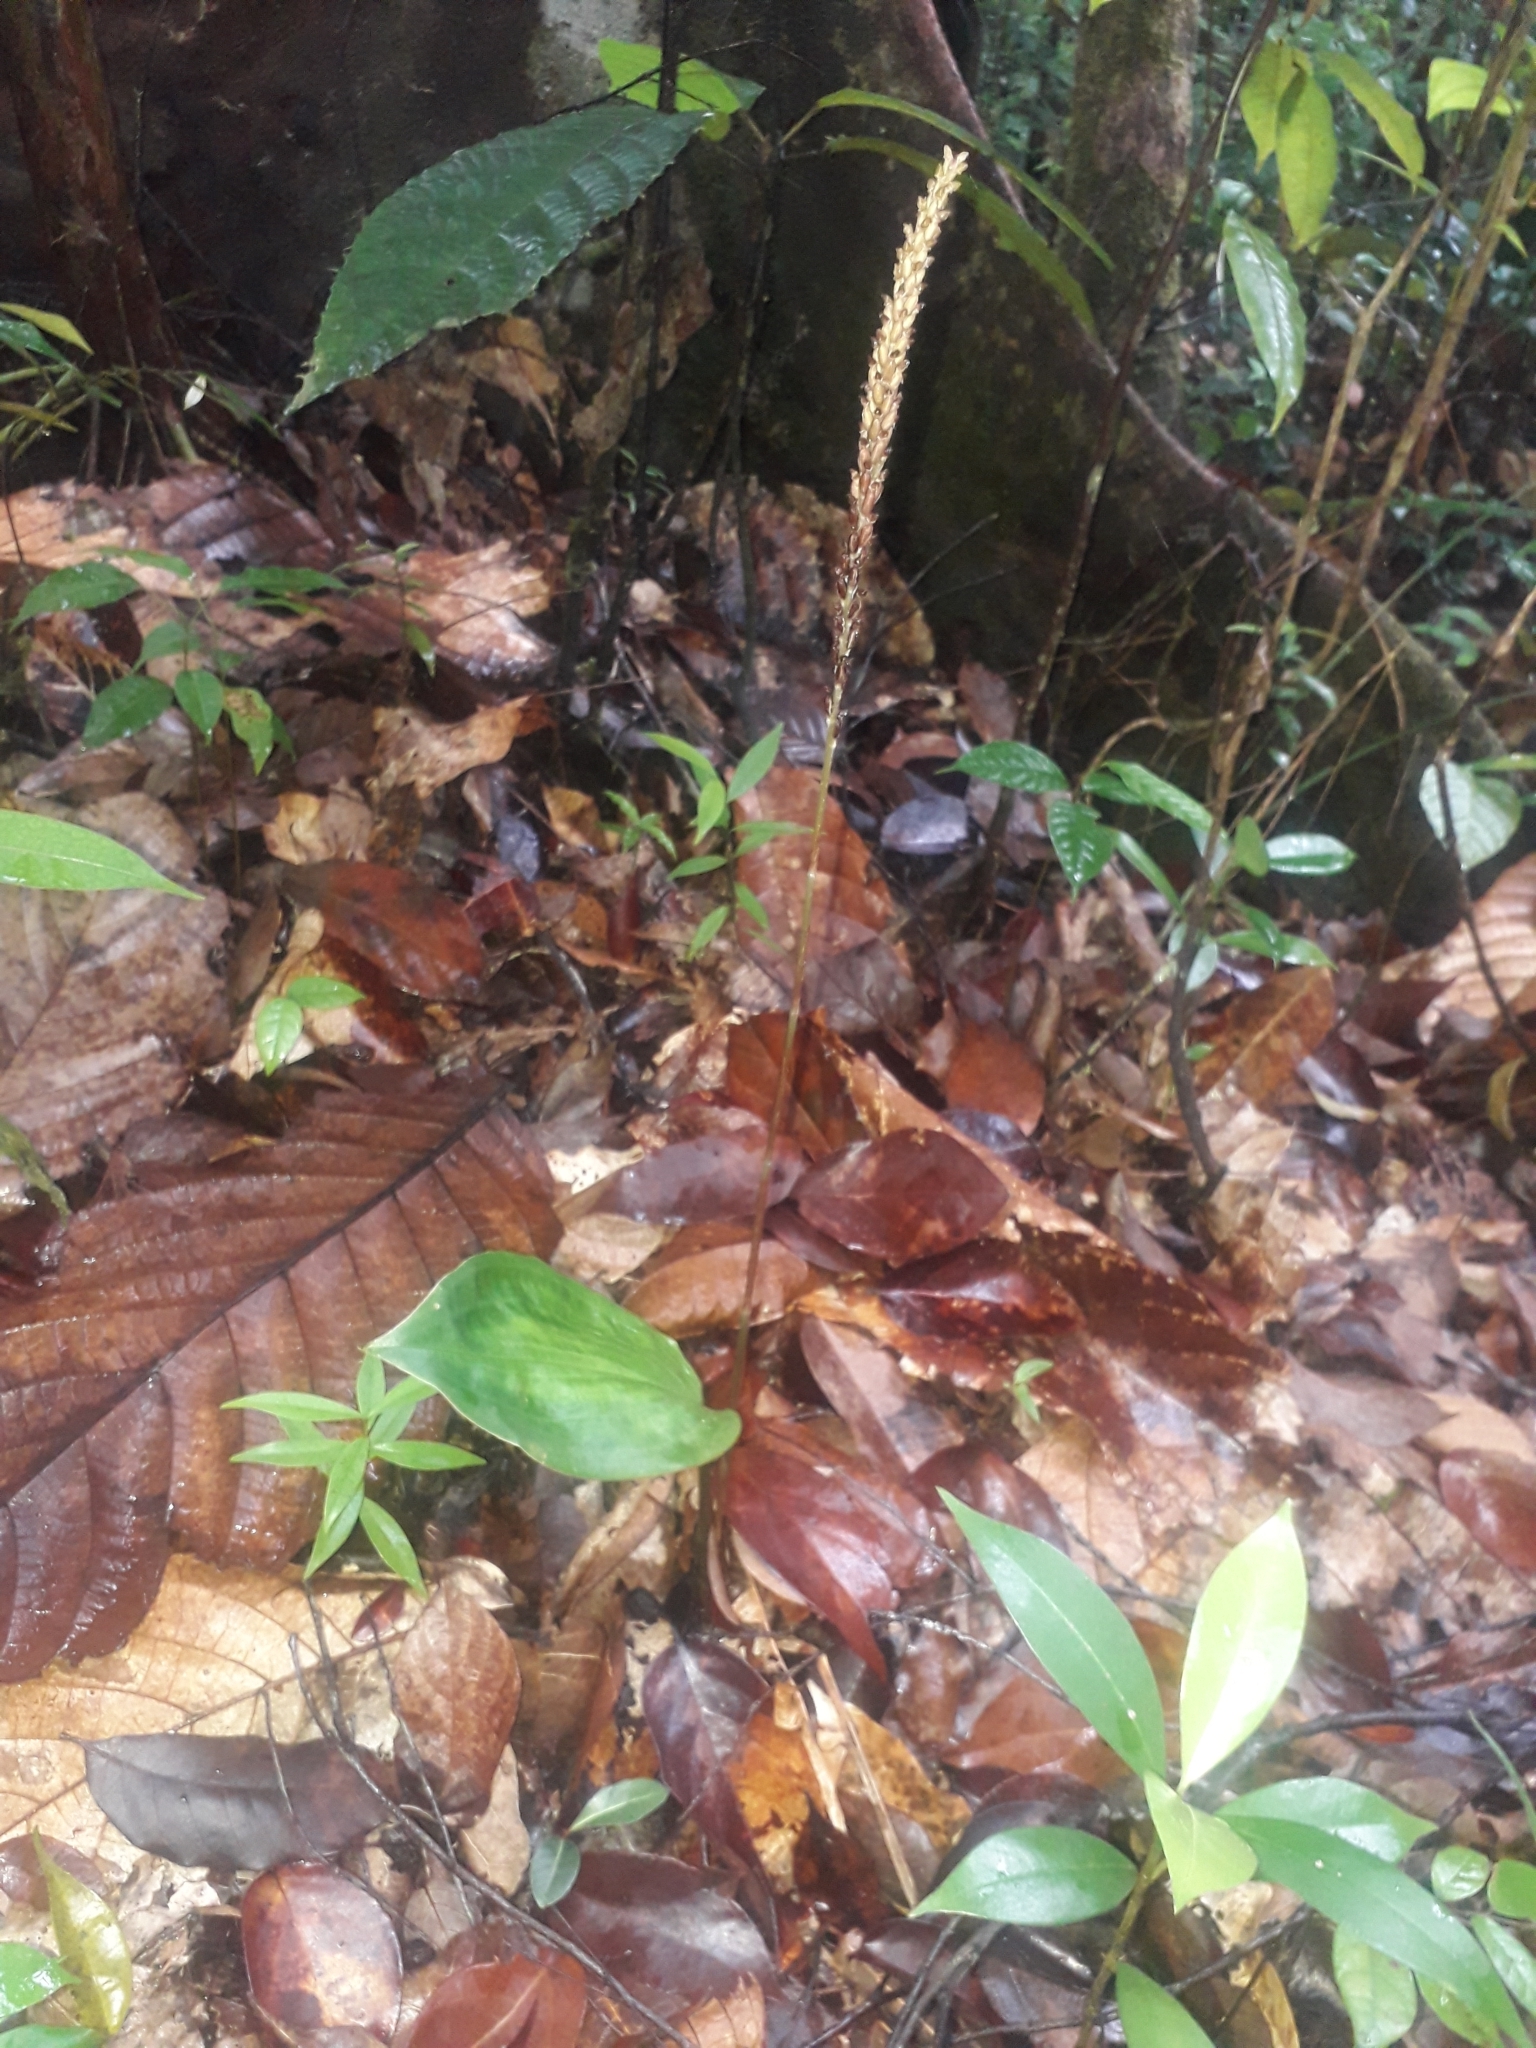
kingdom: Plantae
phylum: Tracheophyta
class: Liliopsida
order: Asparagales
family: Orchidaceae
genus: Prescottia
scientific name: Prescottia stachyodes
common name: Mountain prescott orchid
